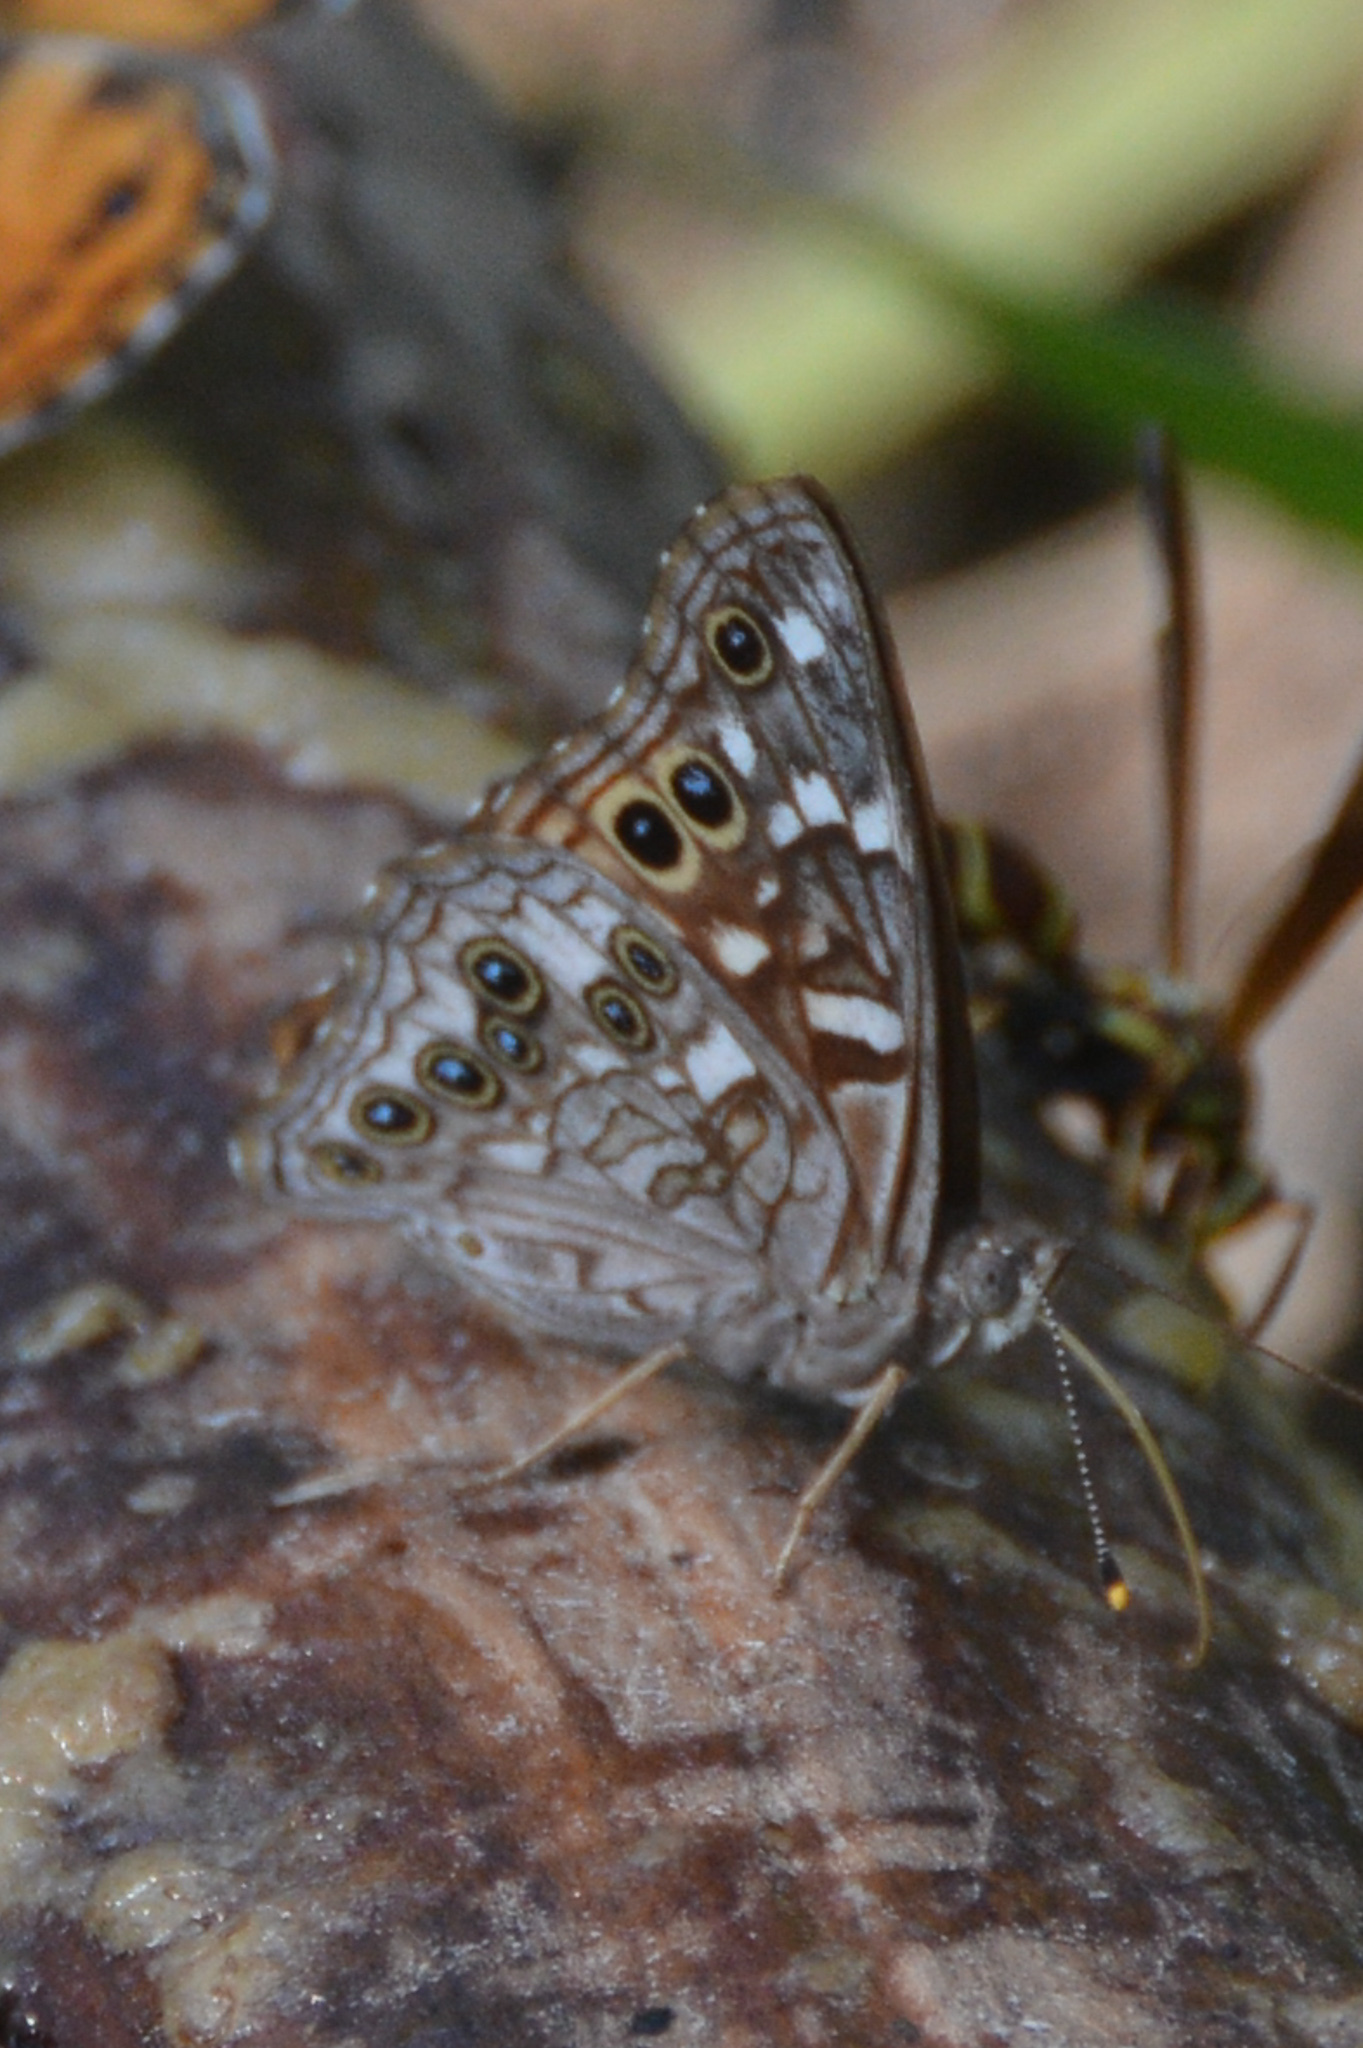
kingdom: Animalia
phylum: Arthropoda
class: Insecta
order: Lepidoptera
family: Nymphalidae
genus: Asterocampa
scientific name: Asterocampa leilia
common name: Empress leilia
